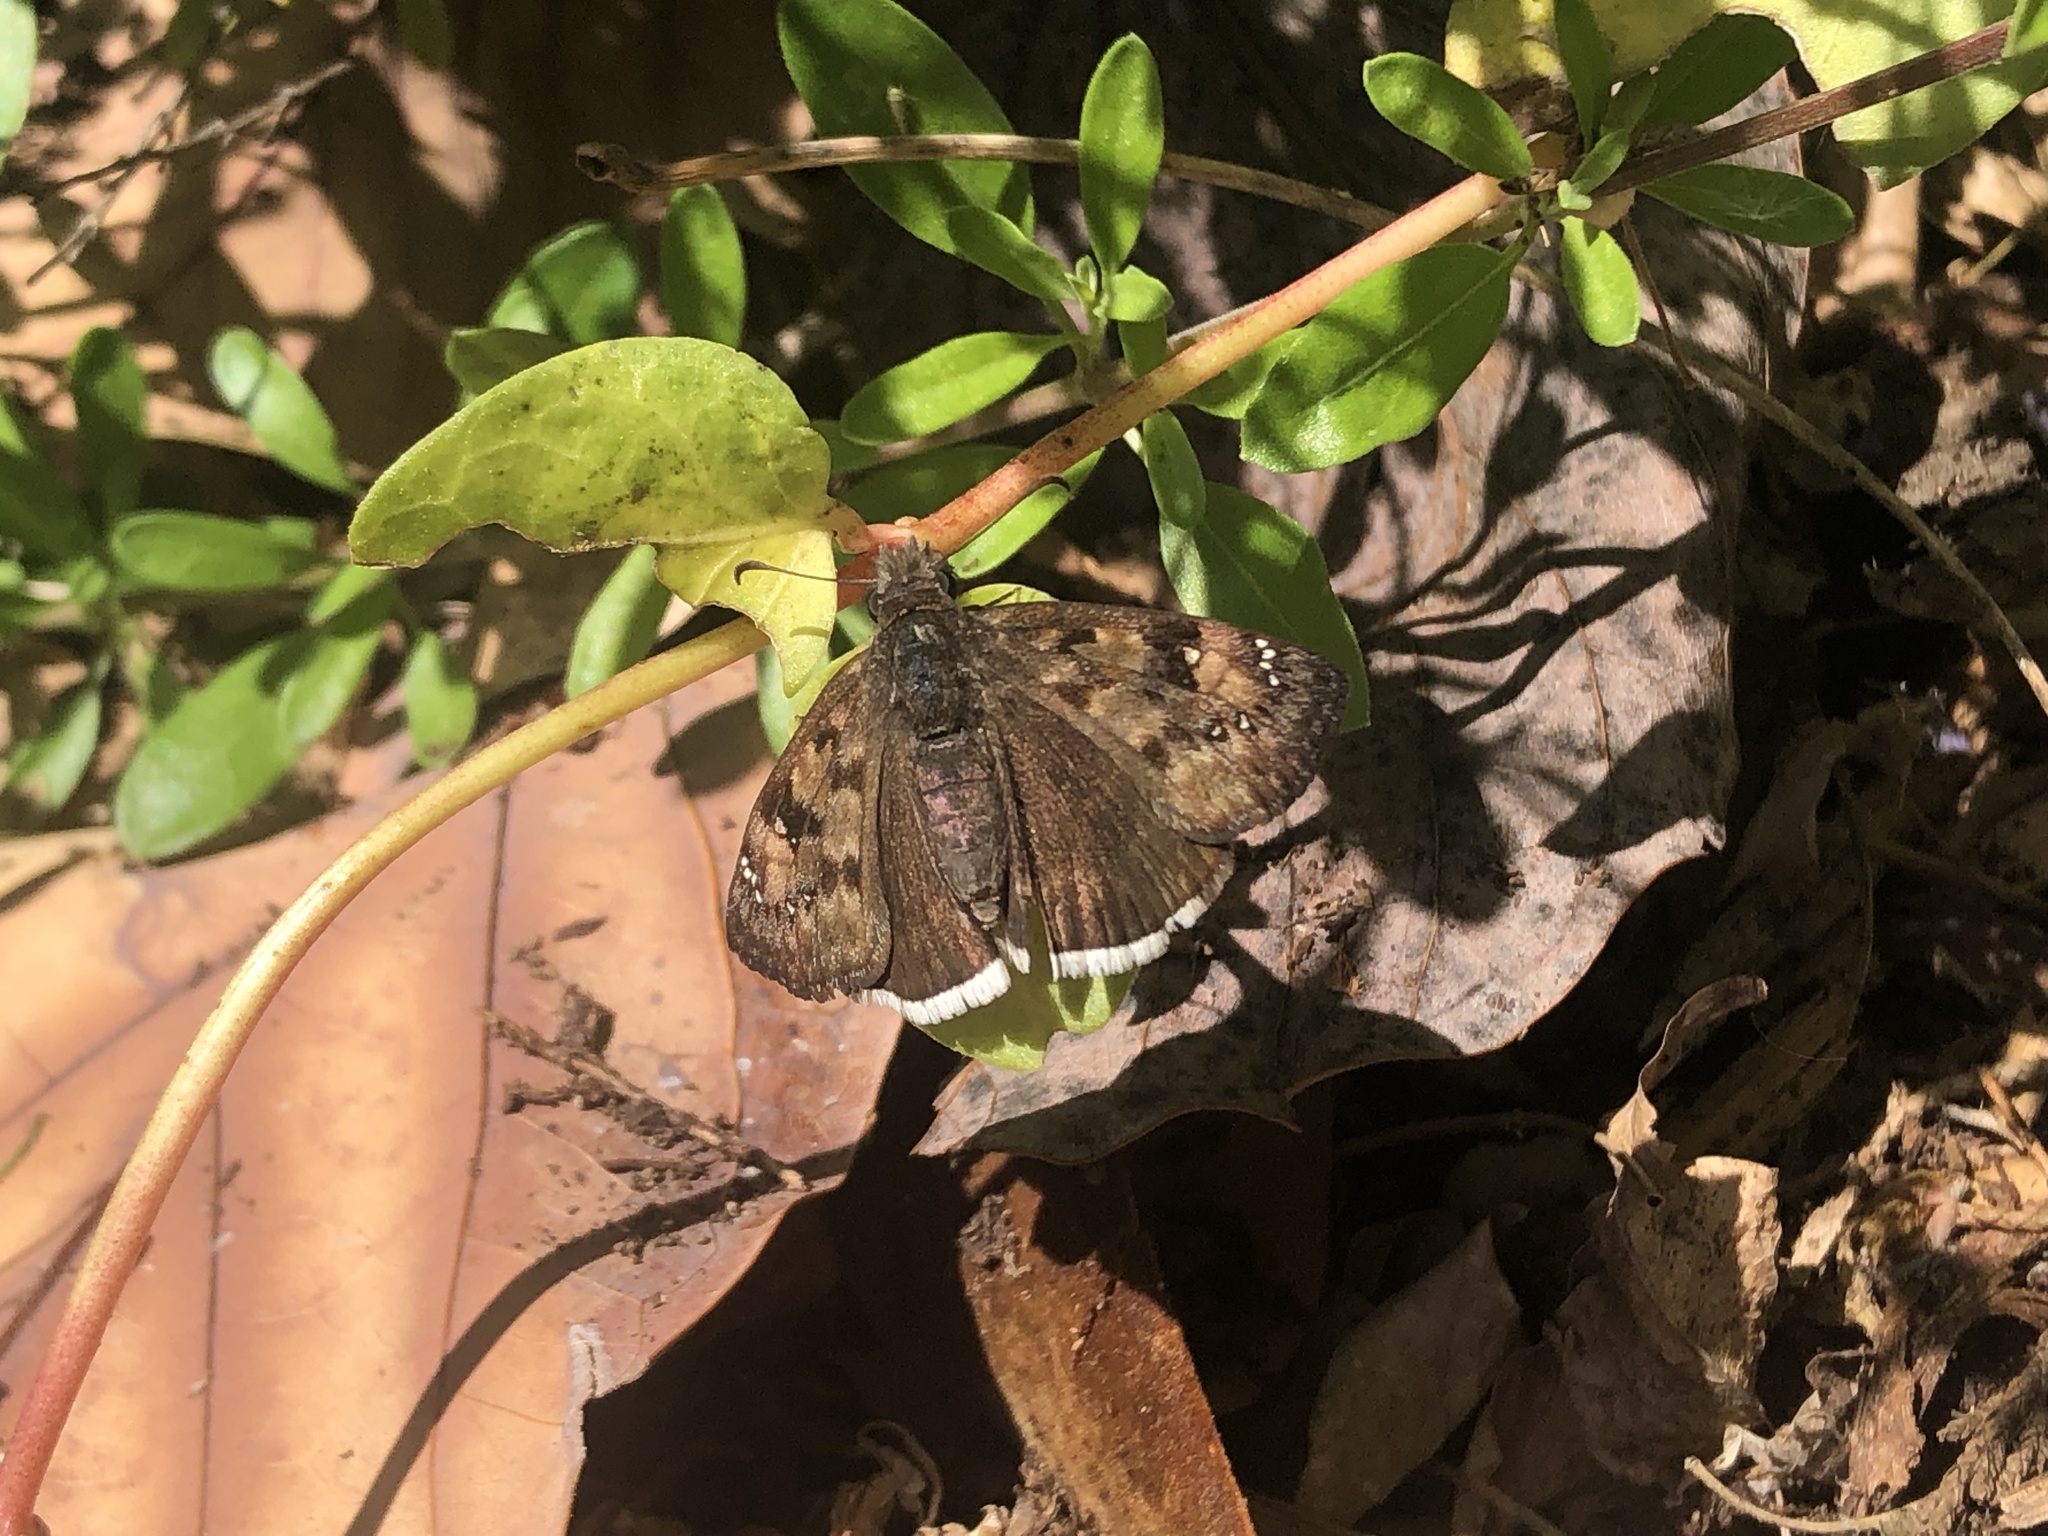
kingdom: Animalia
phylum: Arthropoda
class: Insecta
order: Lepidoptera
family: Hesperiidae
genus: Erynnis
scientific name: Erynnis tristis
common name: Mournful duskywing
